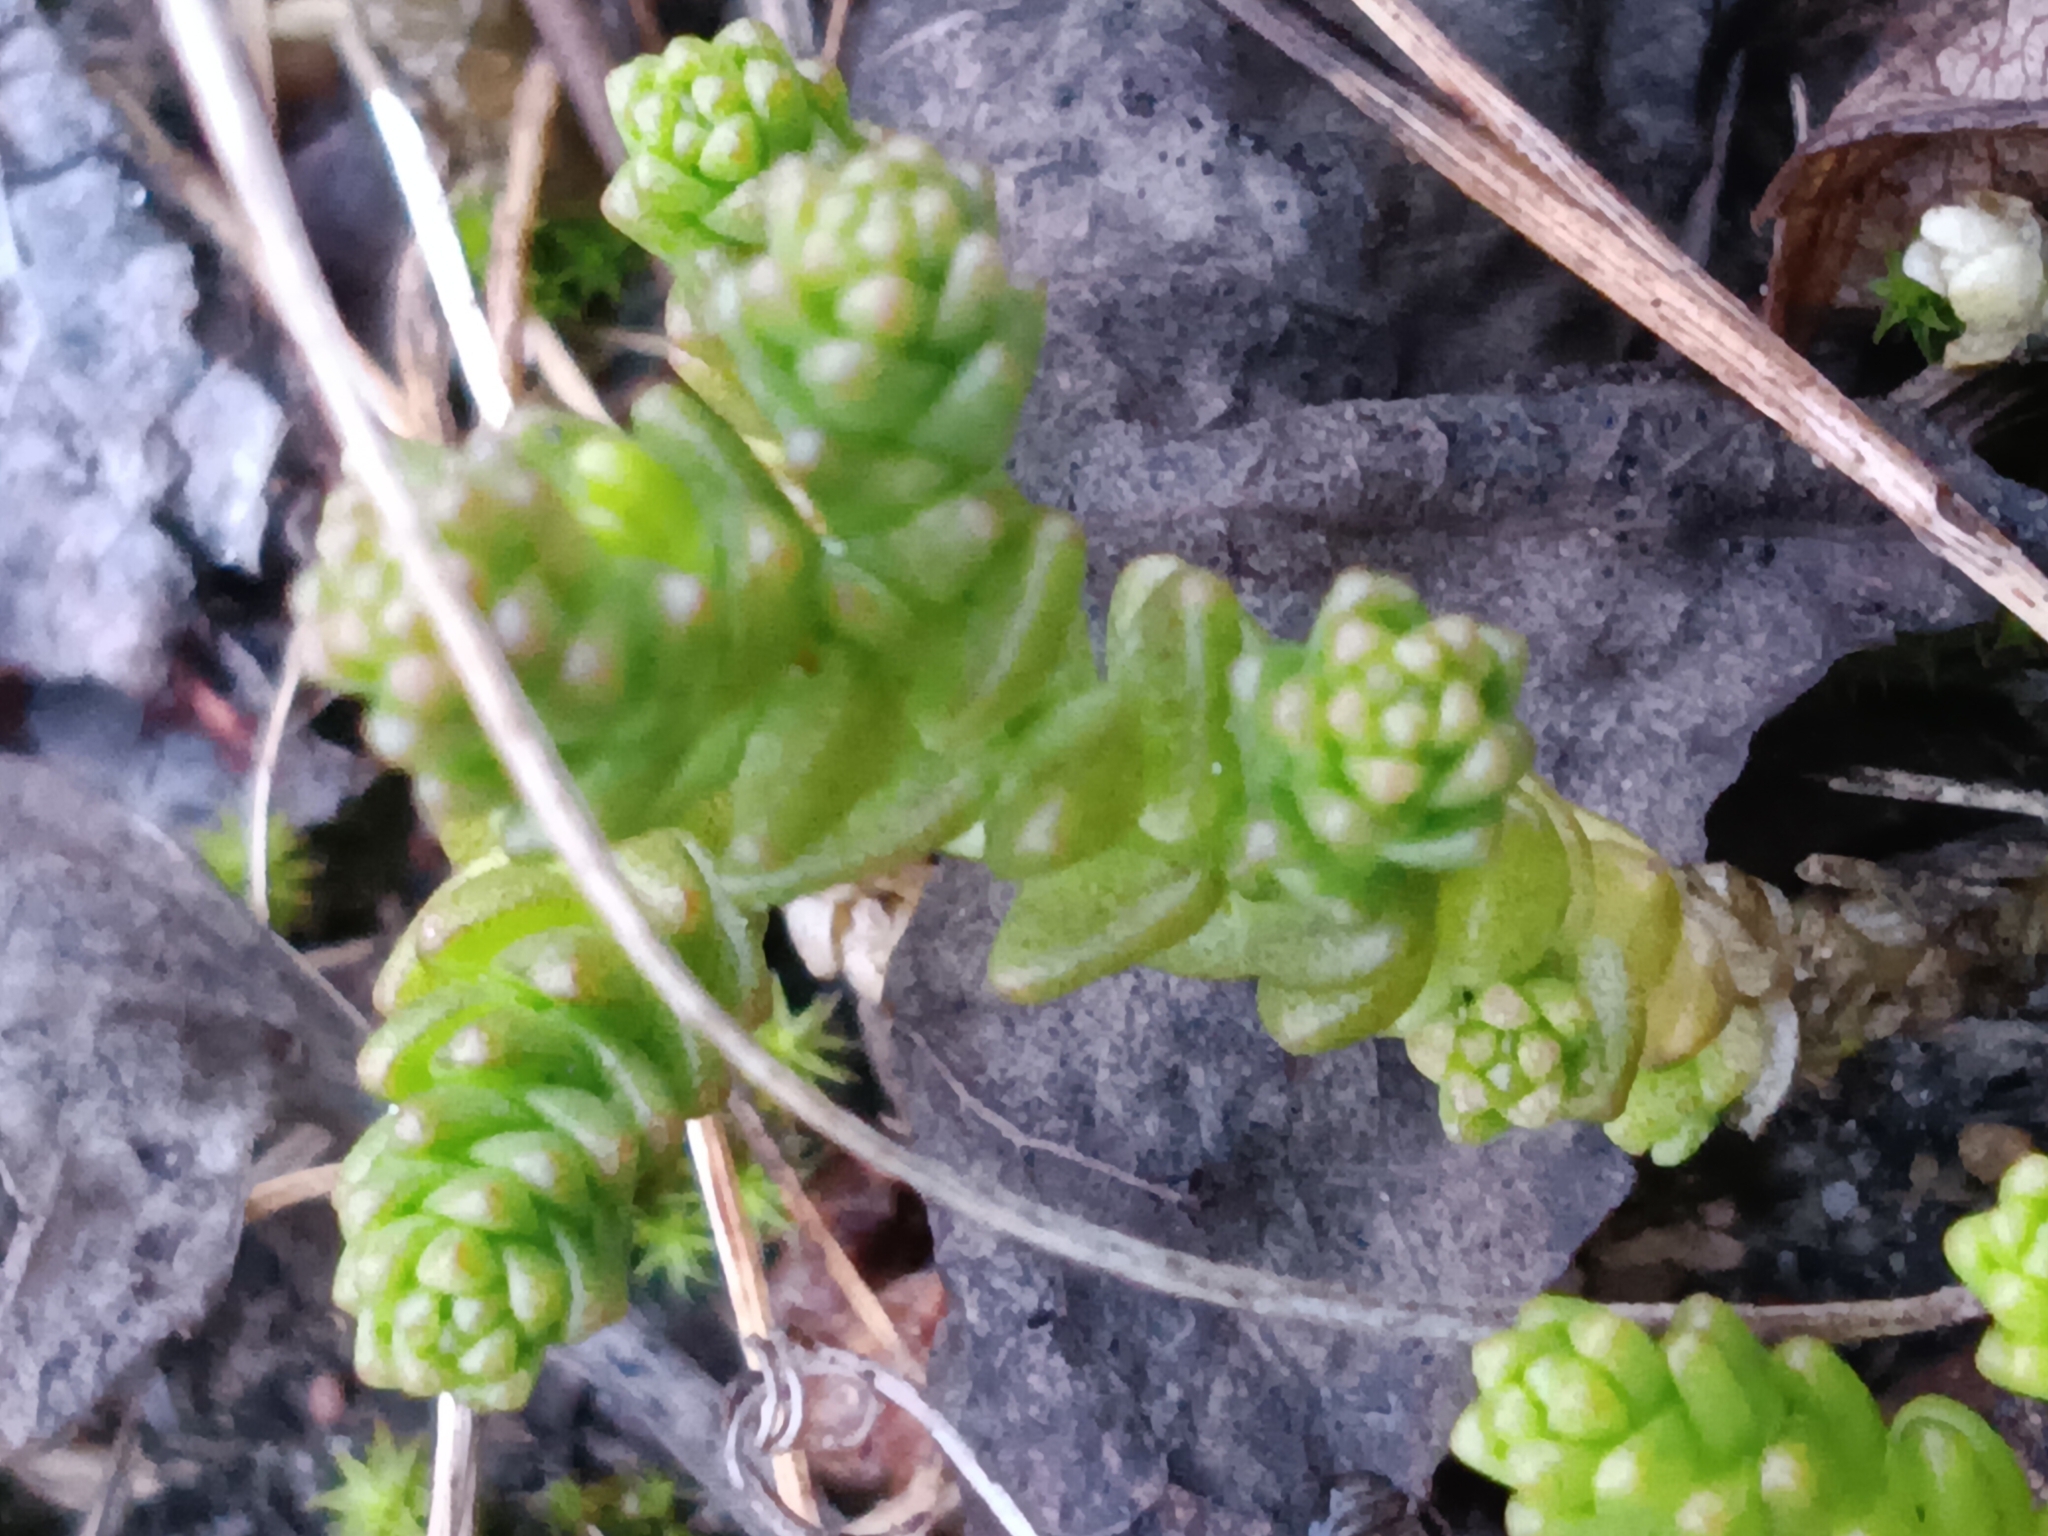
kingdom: Plantae
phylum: Tracheophyta
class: Magnoliopsida
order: Saxifragales
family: Crassulaceae
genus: Sedum
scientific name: Sedum acre
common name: Biting stonecrop
